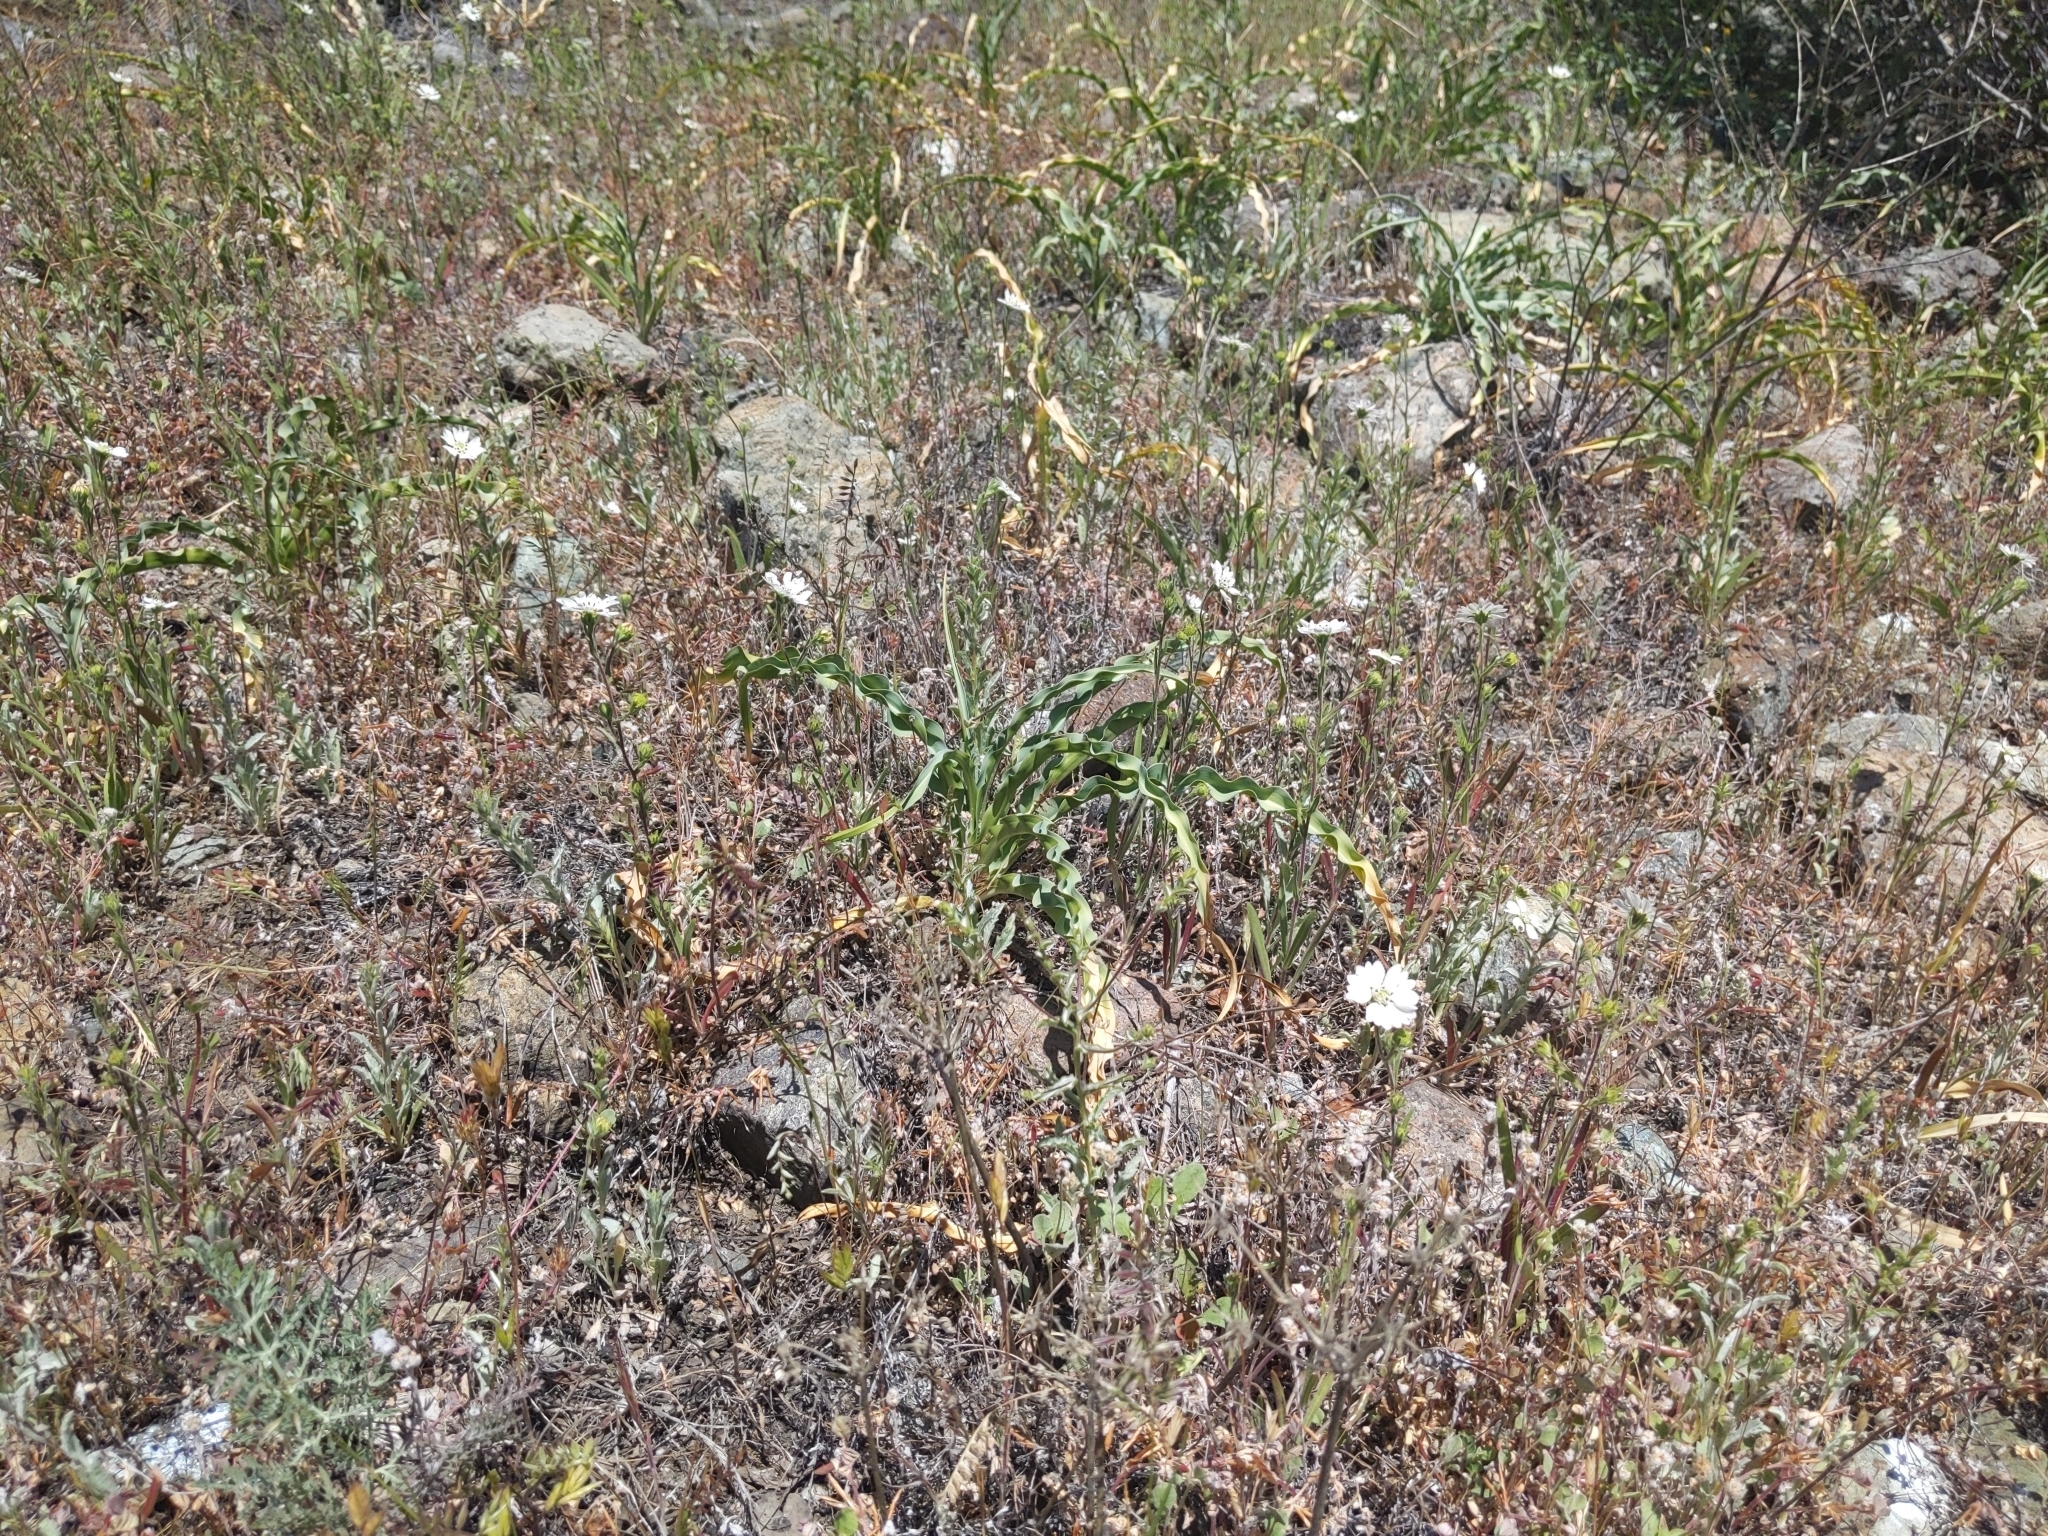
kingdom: Plantae
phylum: Tracheophyta
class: Liliopsida
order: Asparagales
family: Asparagaceae
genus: Chlorogalum
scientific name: Chlorogalum pomeridianum
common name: Amole
